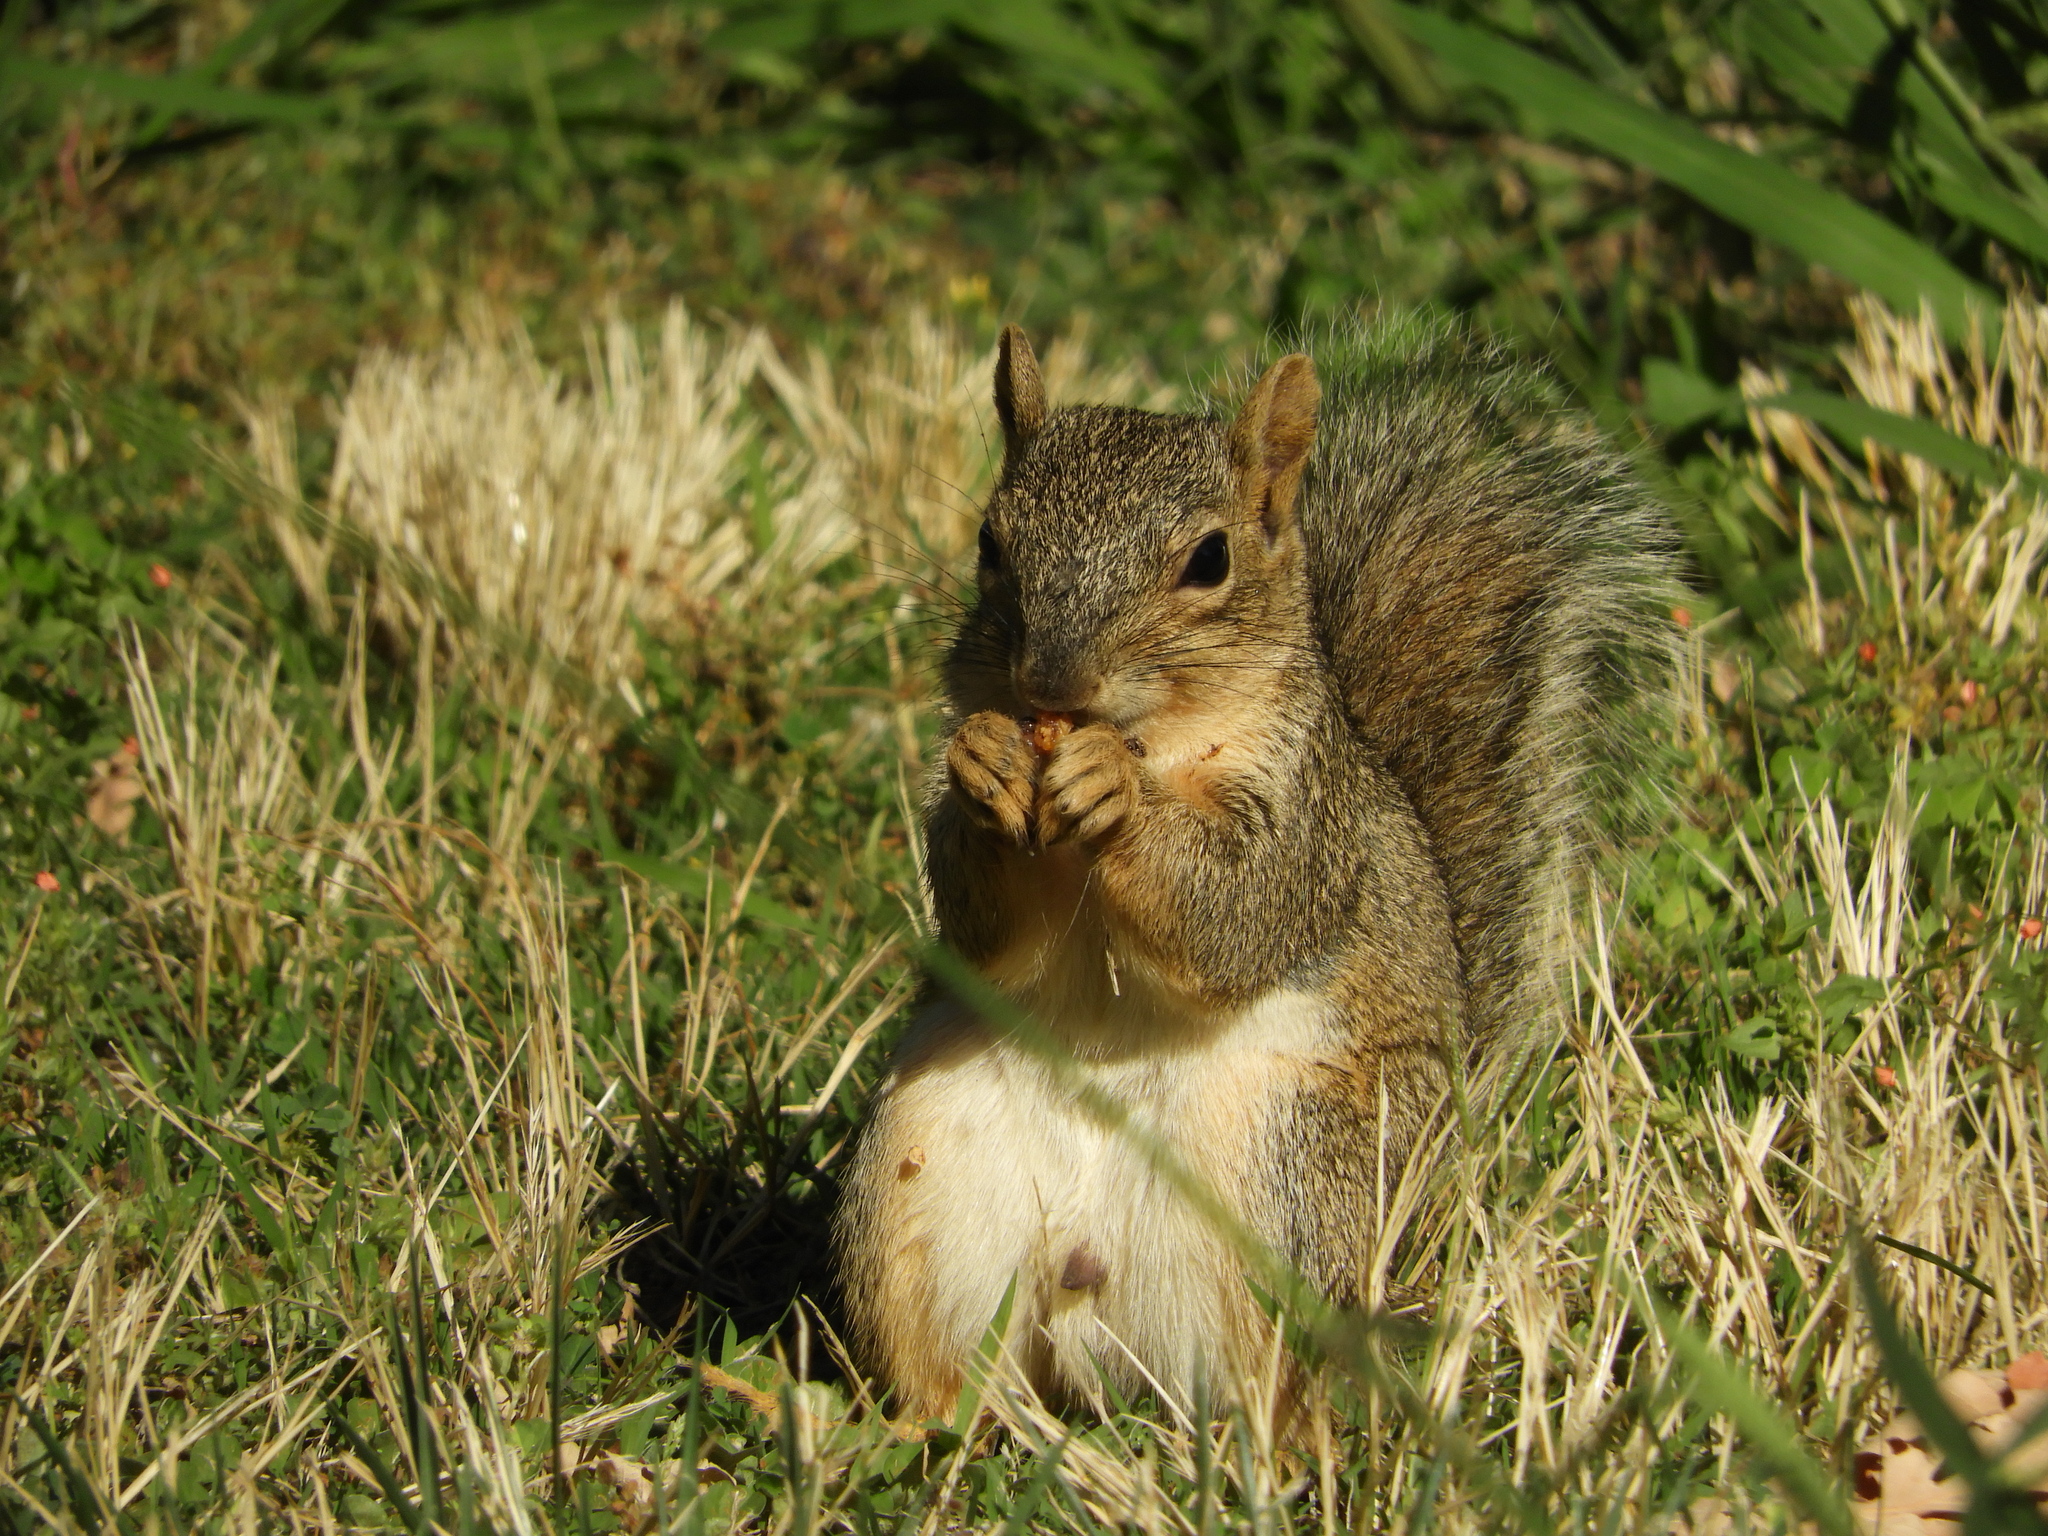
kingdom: Animalia
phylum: Chordata
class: Mammalia
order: Rodentia
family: Sciuridae
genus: Sciurus
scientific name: Sciurus niger
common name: Fox squirrel
